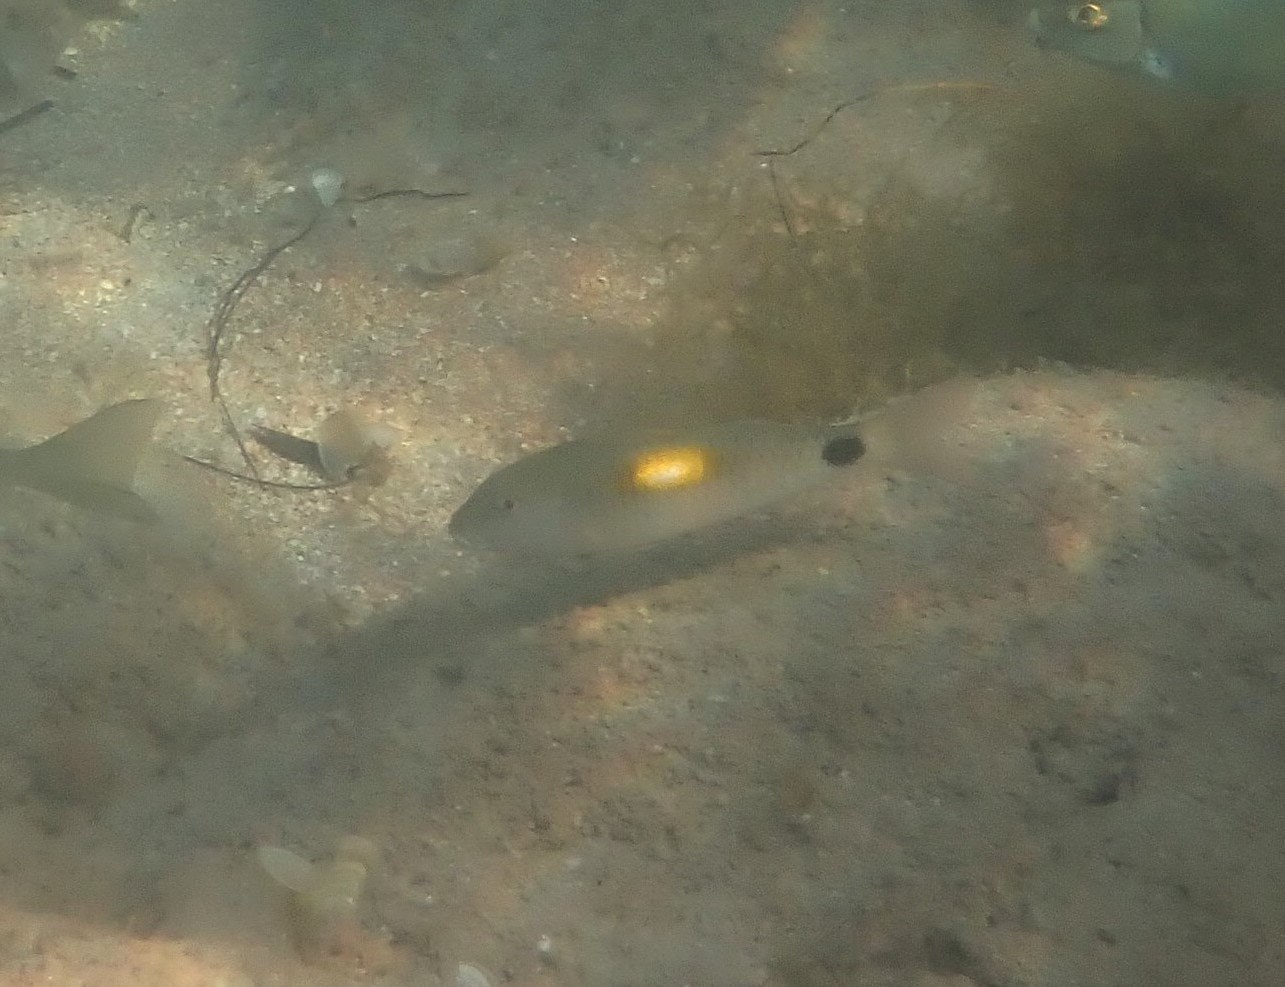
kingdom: Animalia
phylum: Chordata
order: Perciformes
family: Mullidae
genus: Parupeneus
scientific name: Parupeneus indicus
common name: Indian goatfish
